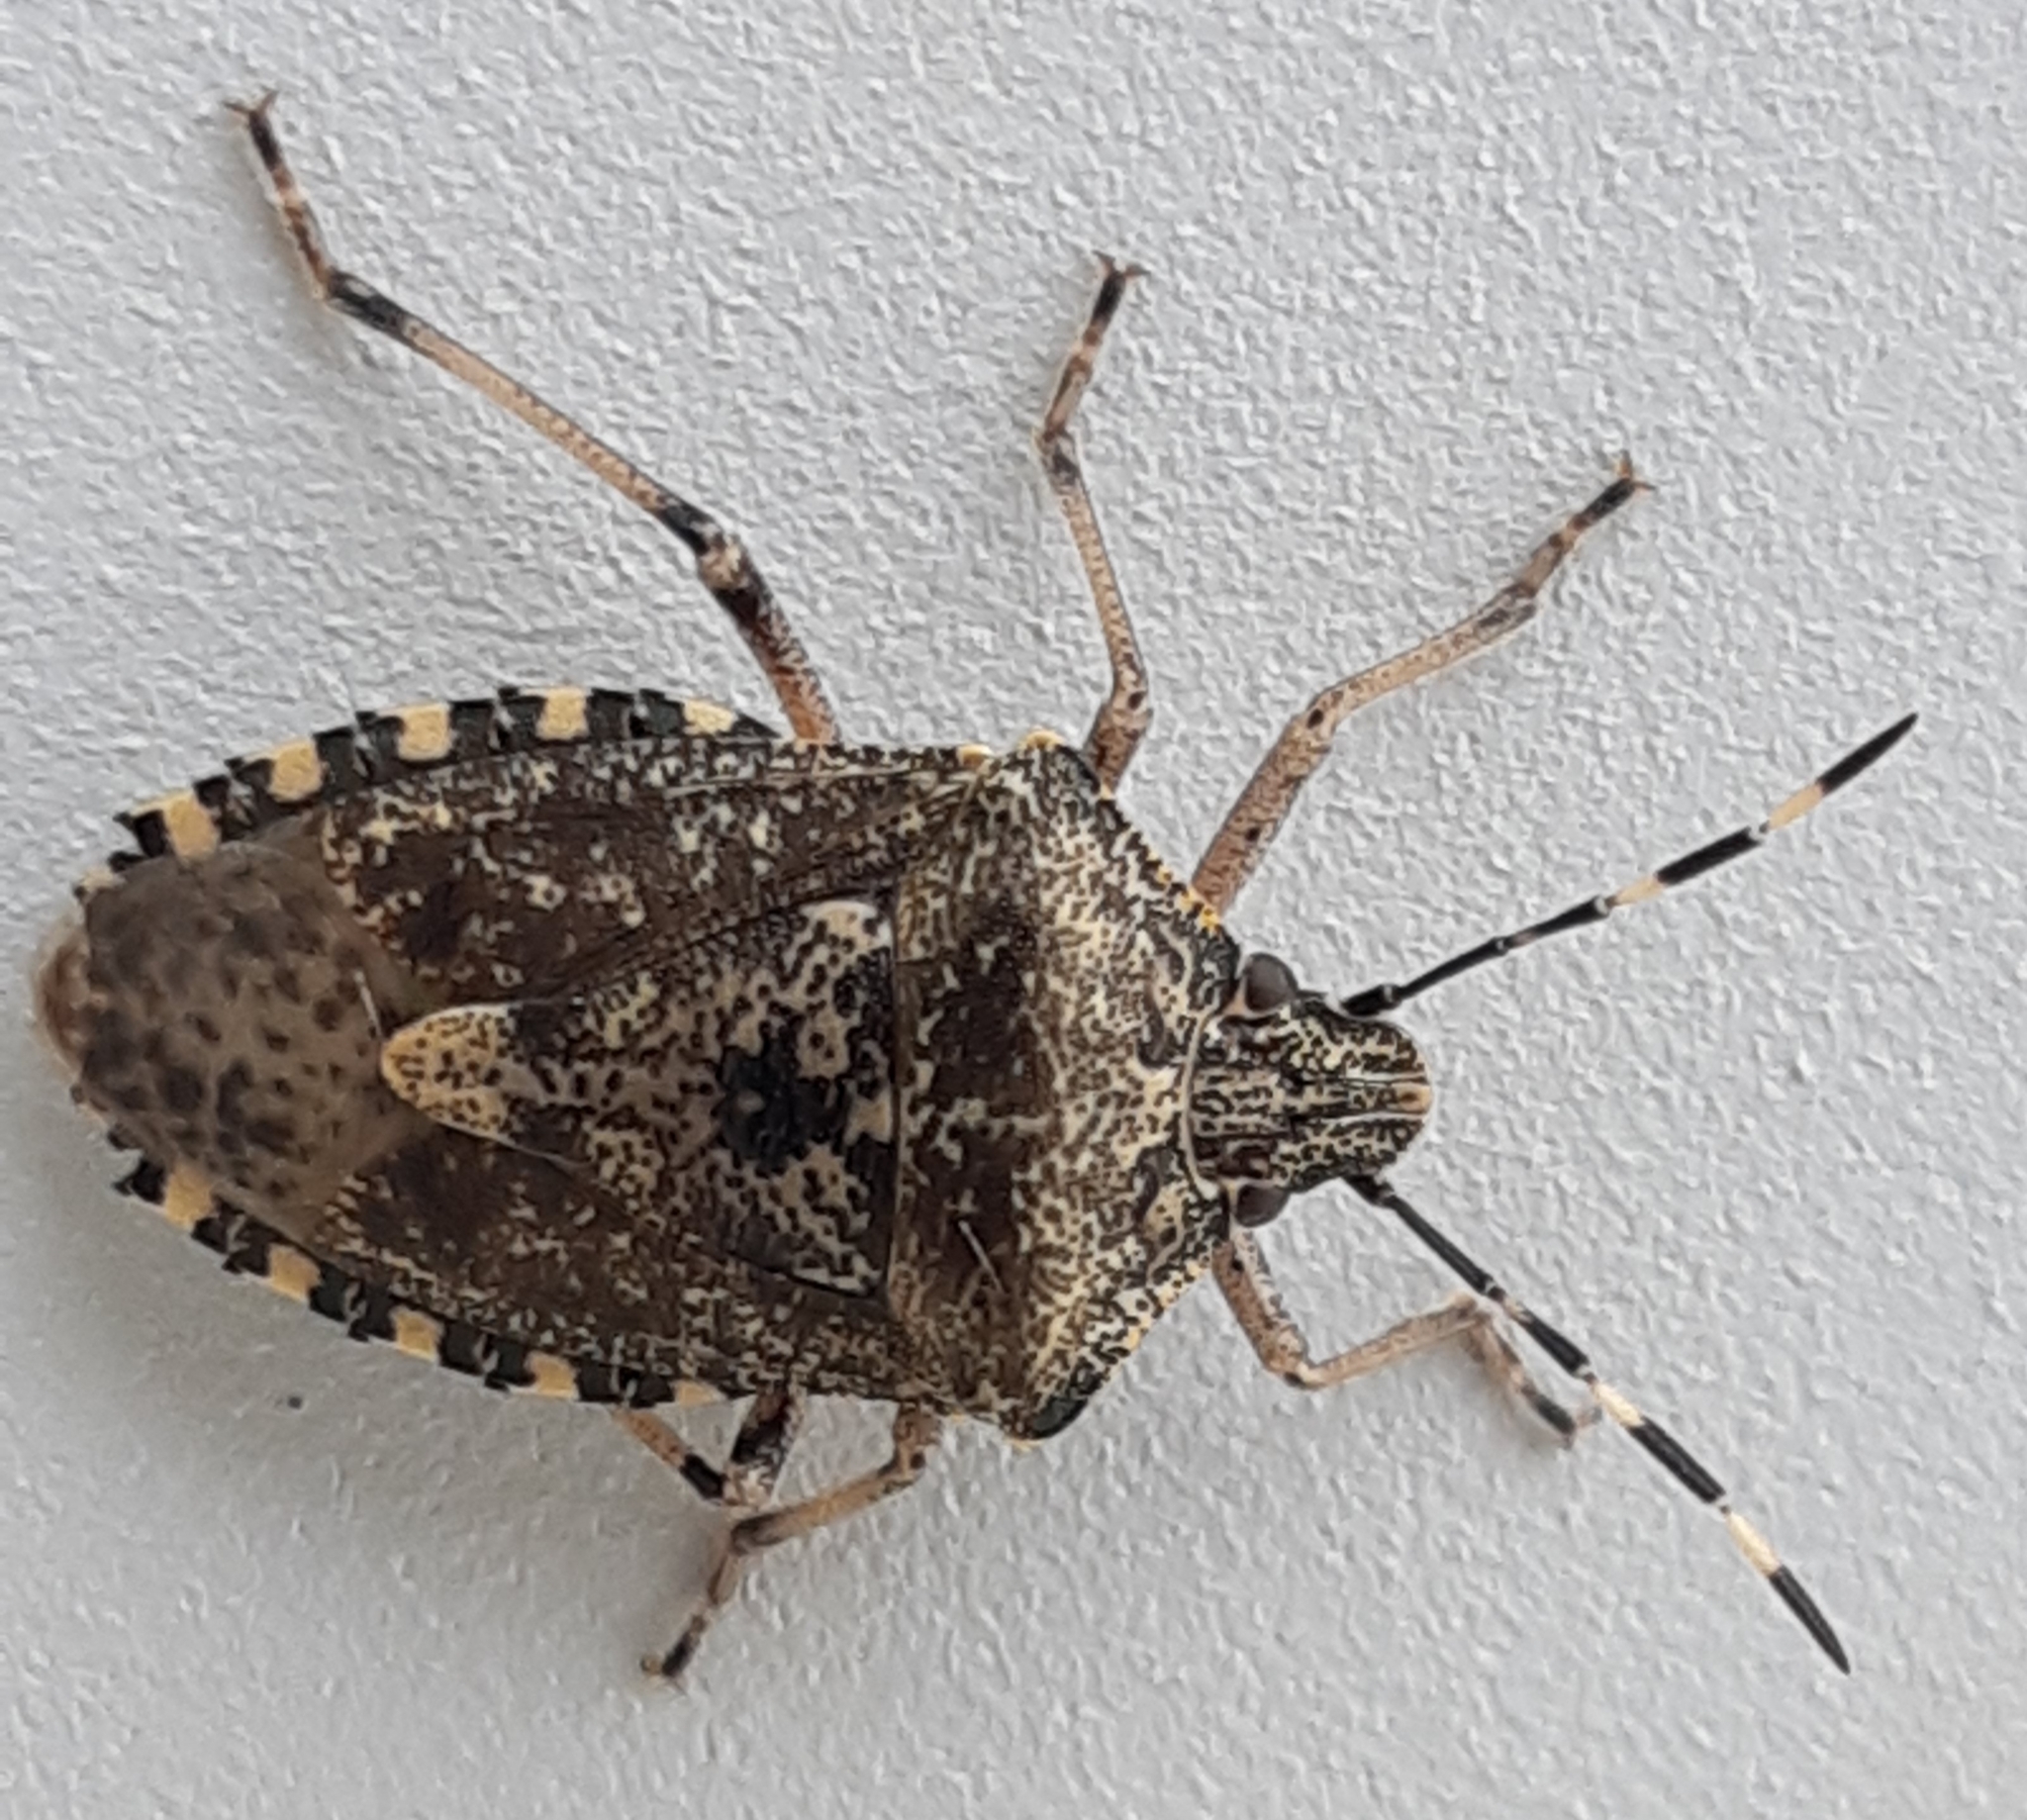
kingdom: Animalia
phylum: Arthropoda
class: Insecta
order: Hemiptera
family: Pentatomidae
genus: Rhaphigaster
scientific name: Rhaphigaster nebulosa
